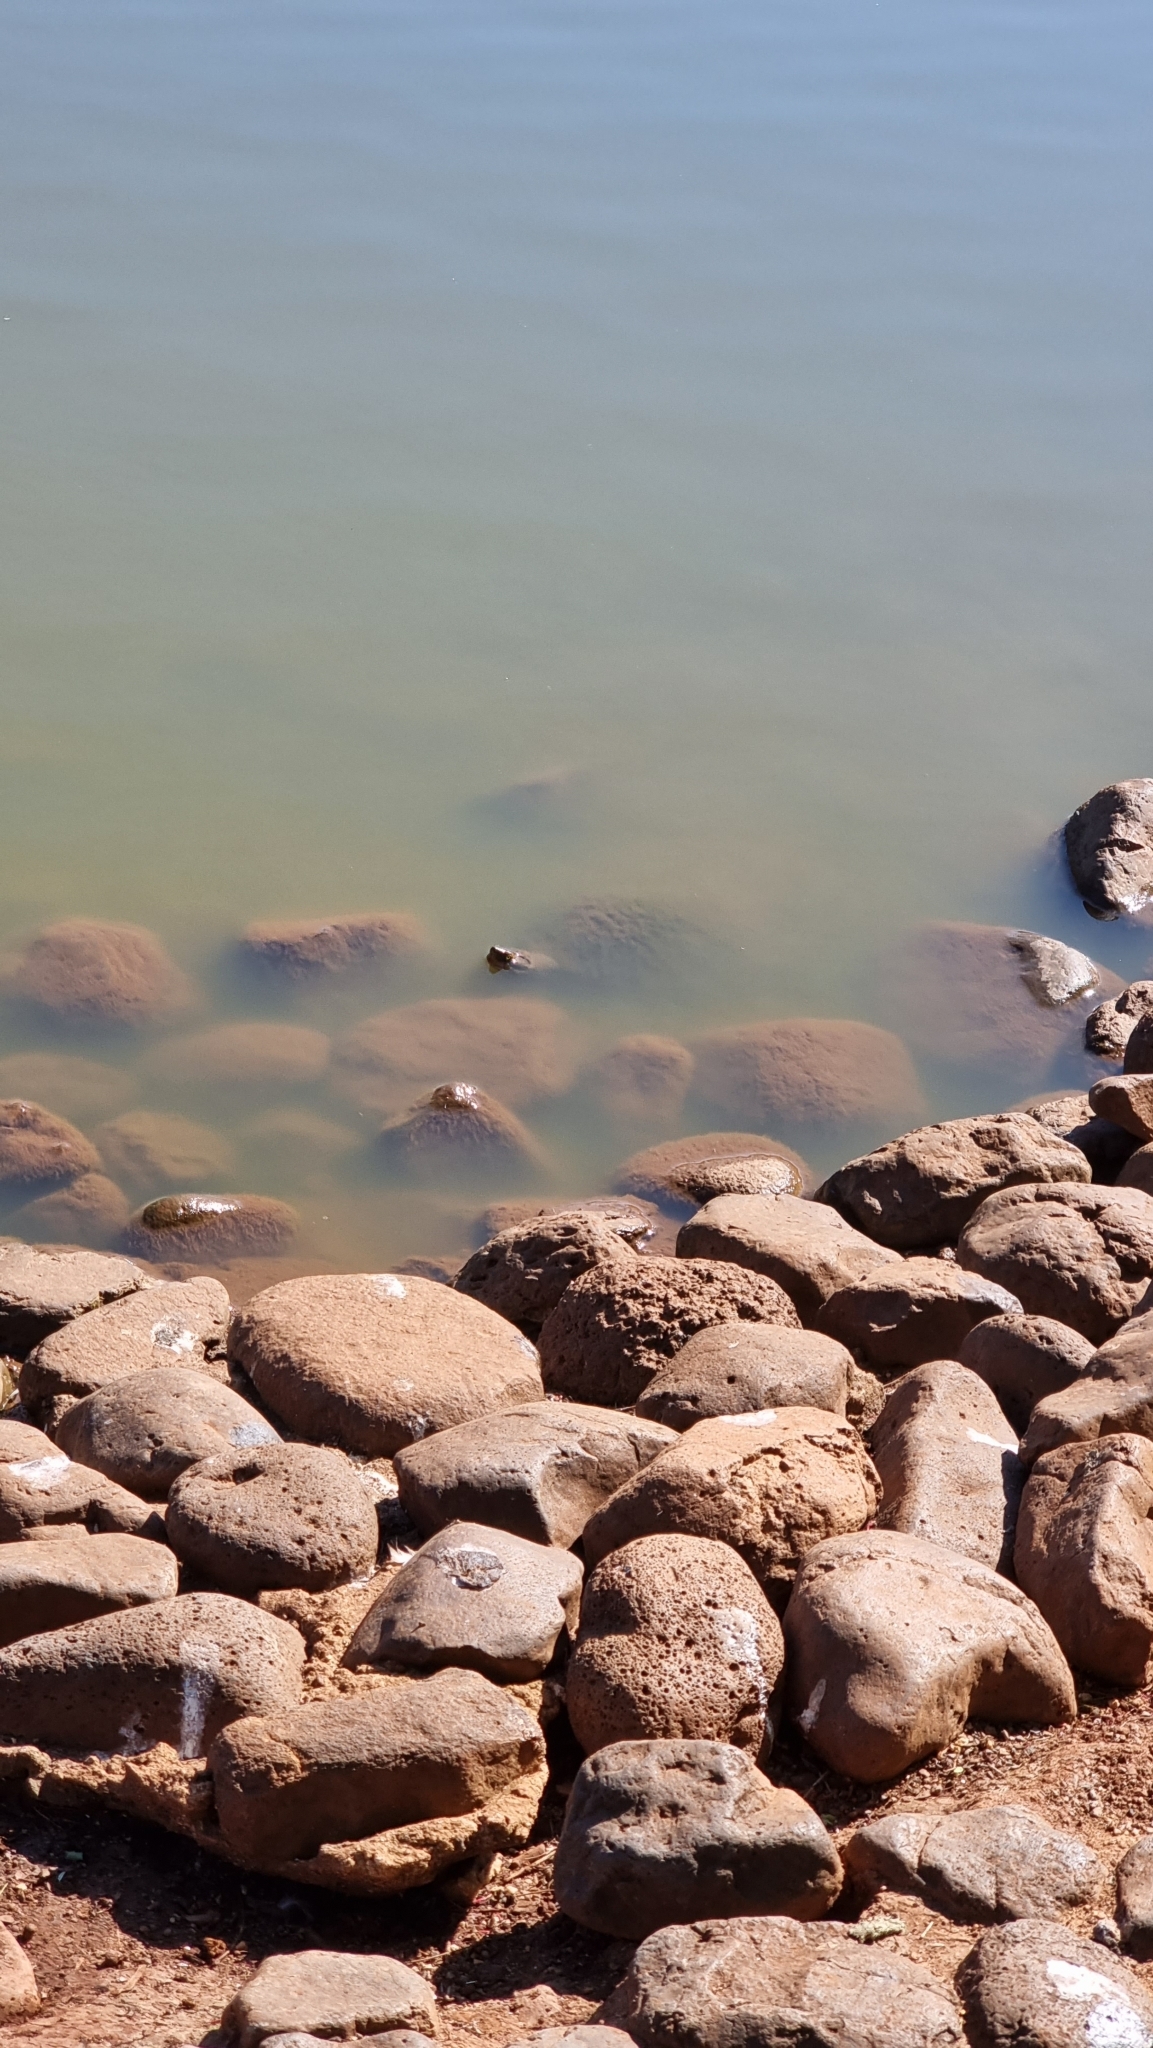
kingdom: Animalia
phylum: Chordata
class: Testudines
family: Chelidae
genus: Emydura
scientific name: Emydura macquarii
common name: Murray river turtle
